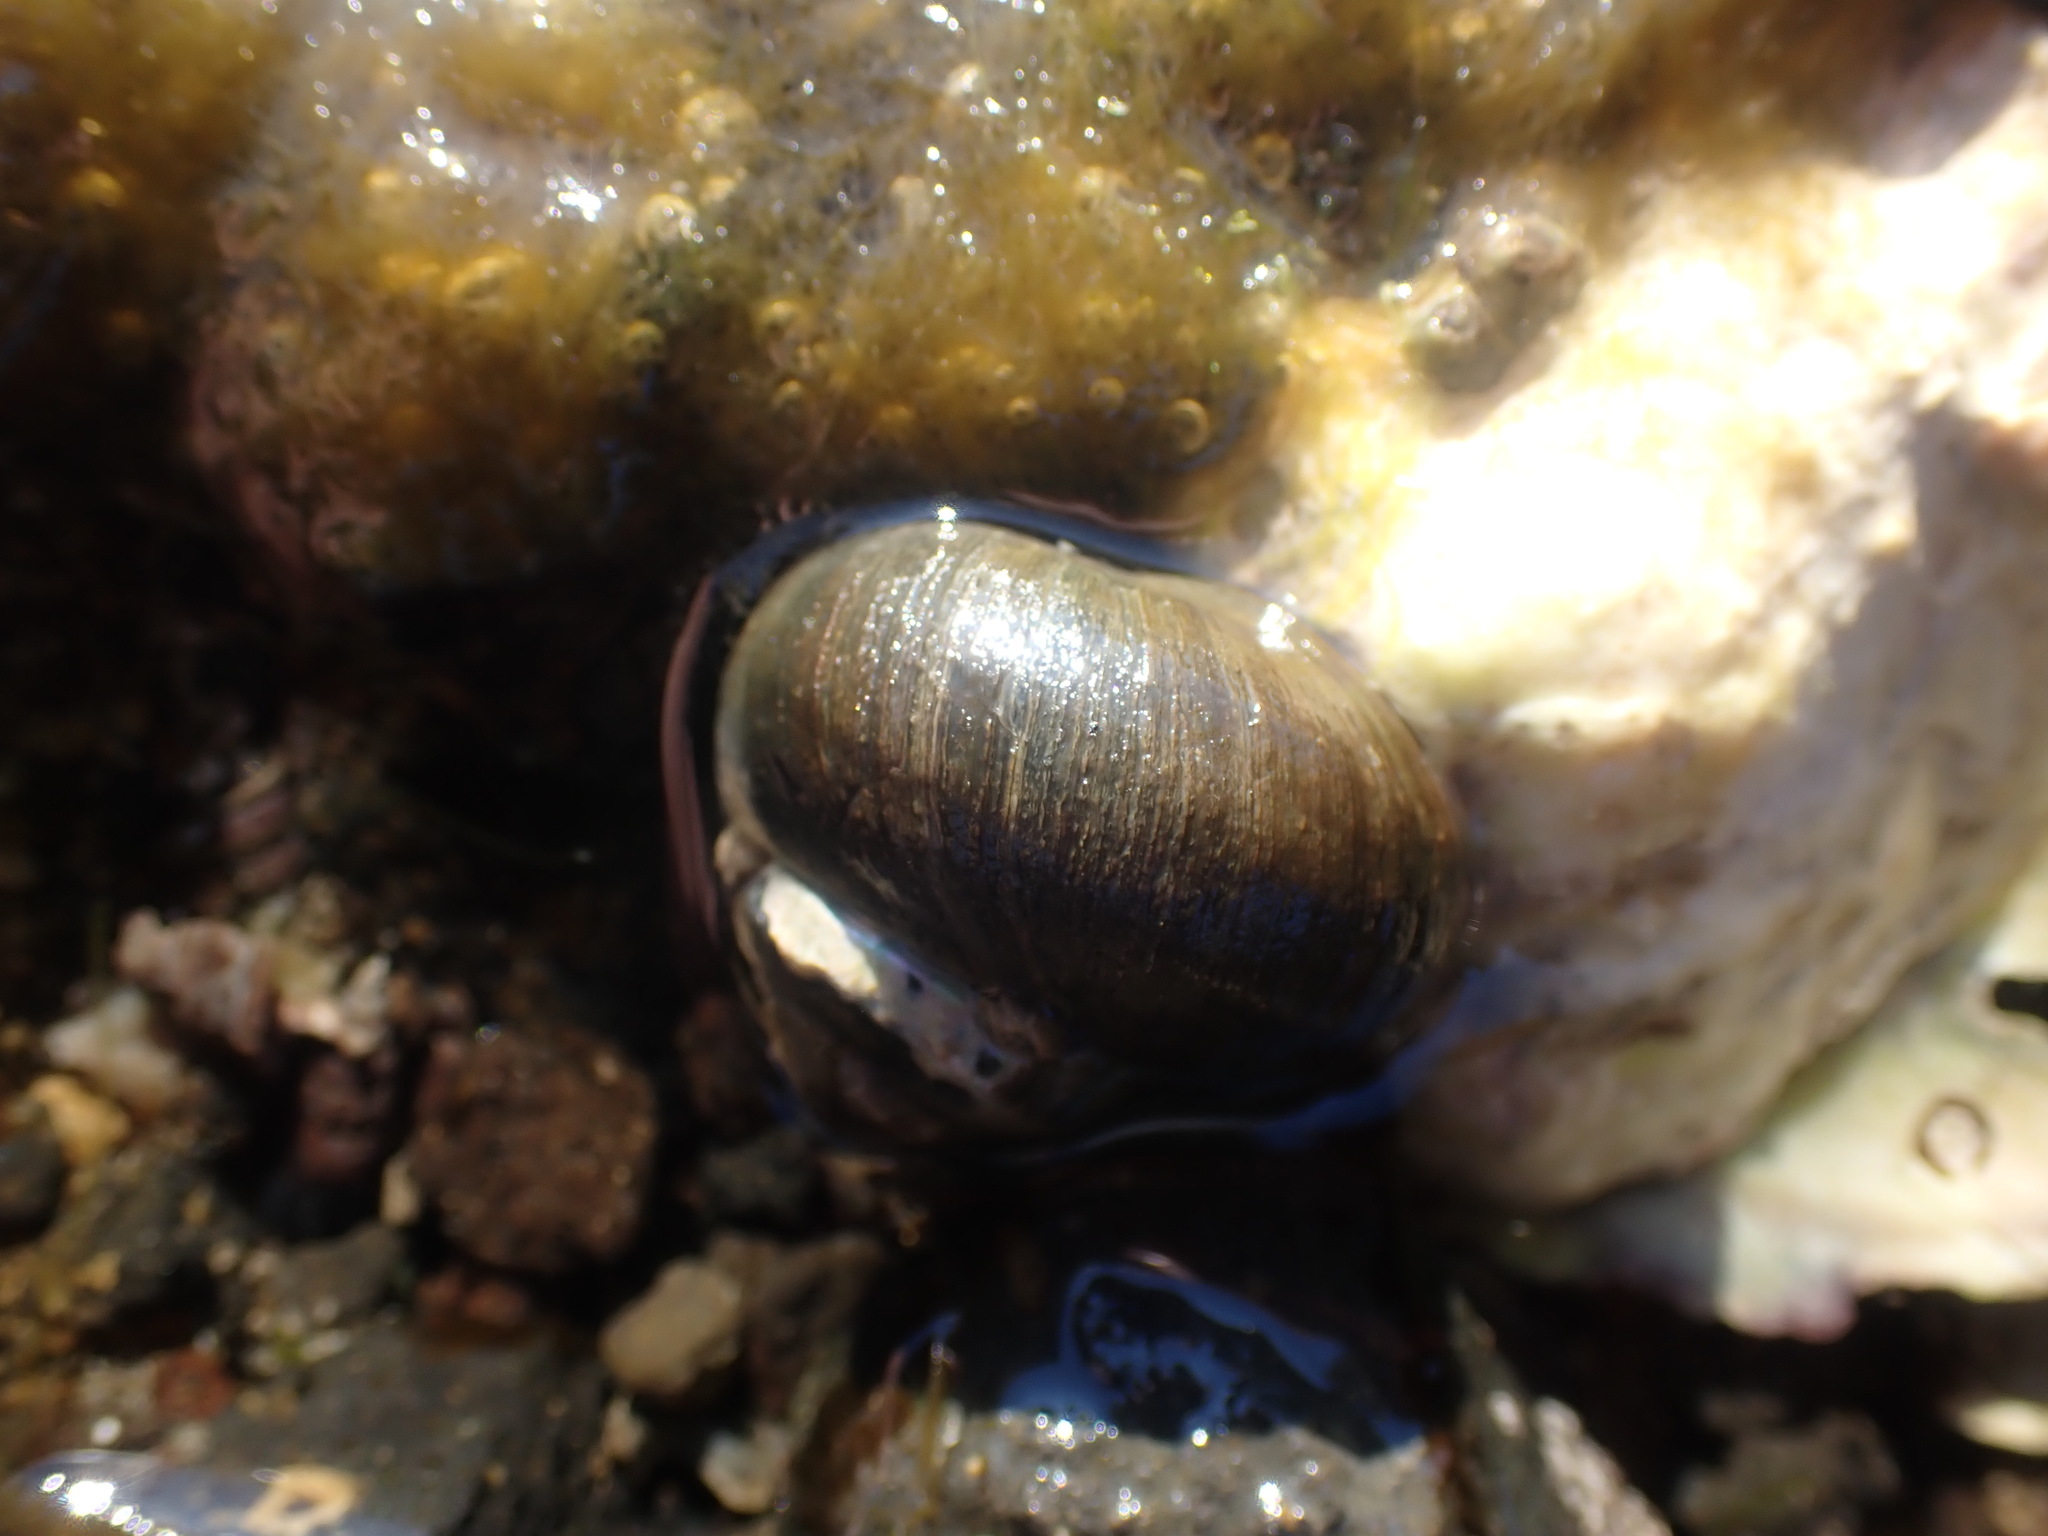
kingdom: Animalia
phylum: Mollusca
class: Gastropoda
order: Trochida
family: Turbinidae
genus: Lunella
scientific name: Lunella smaragda
